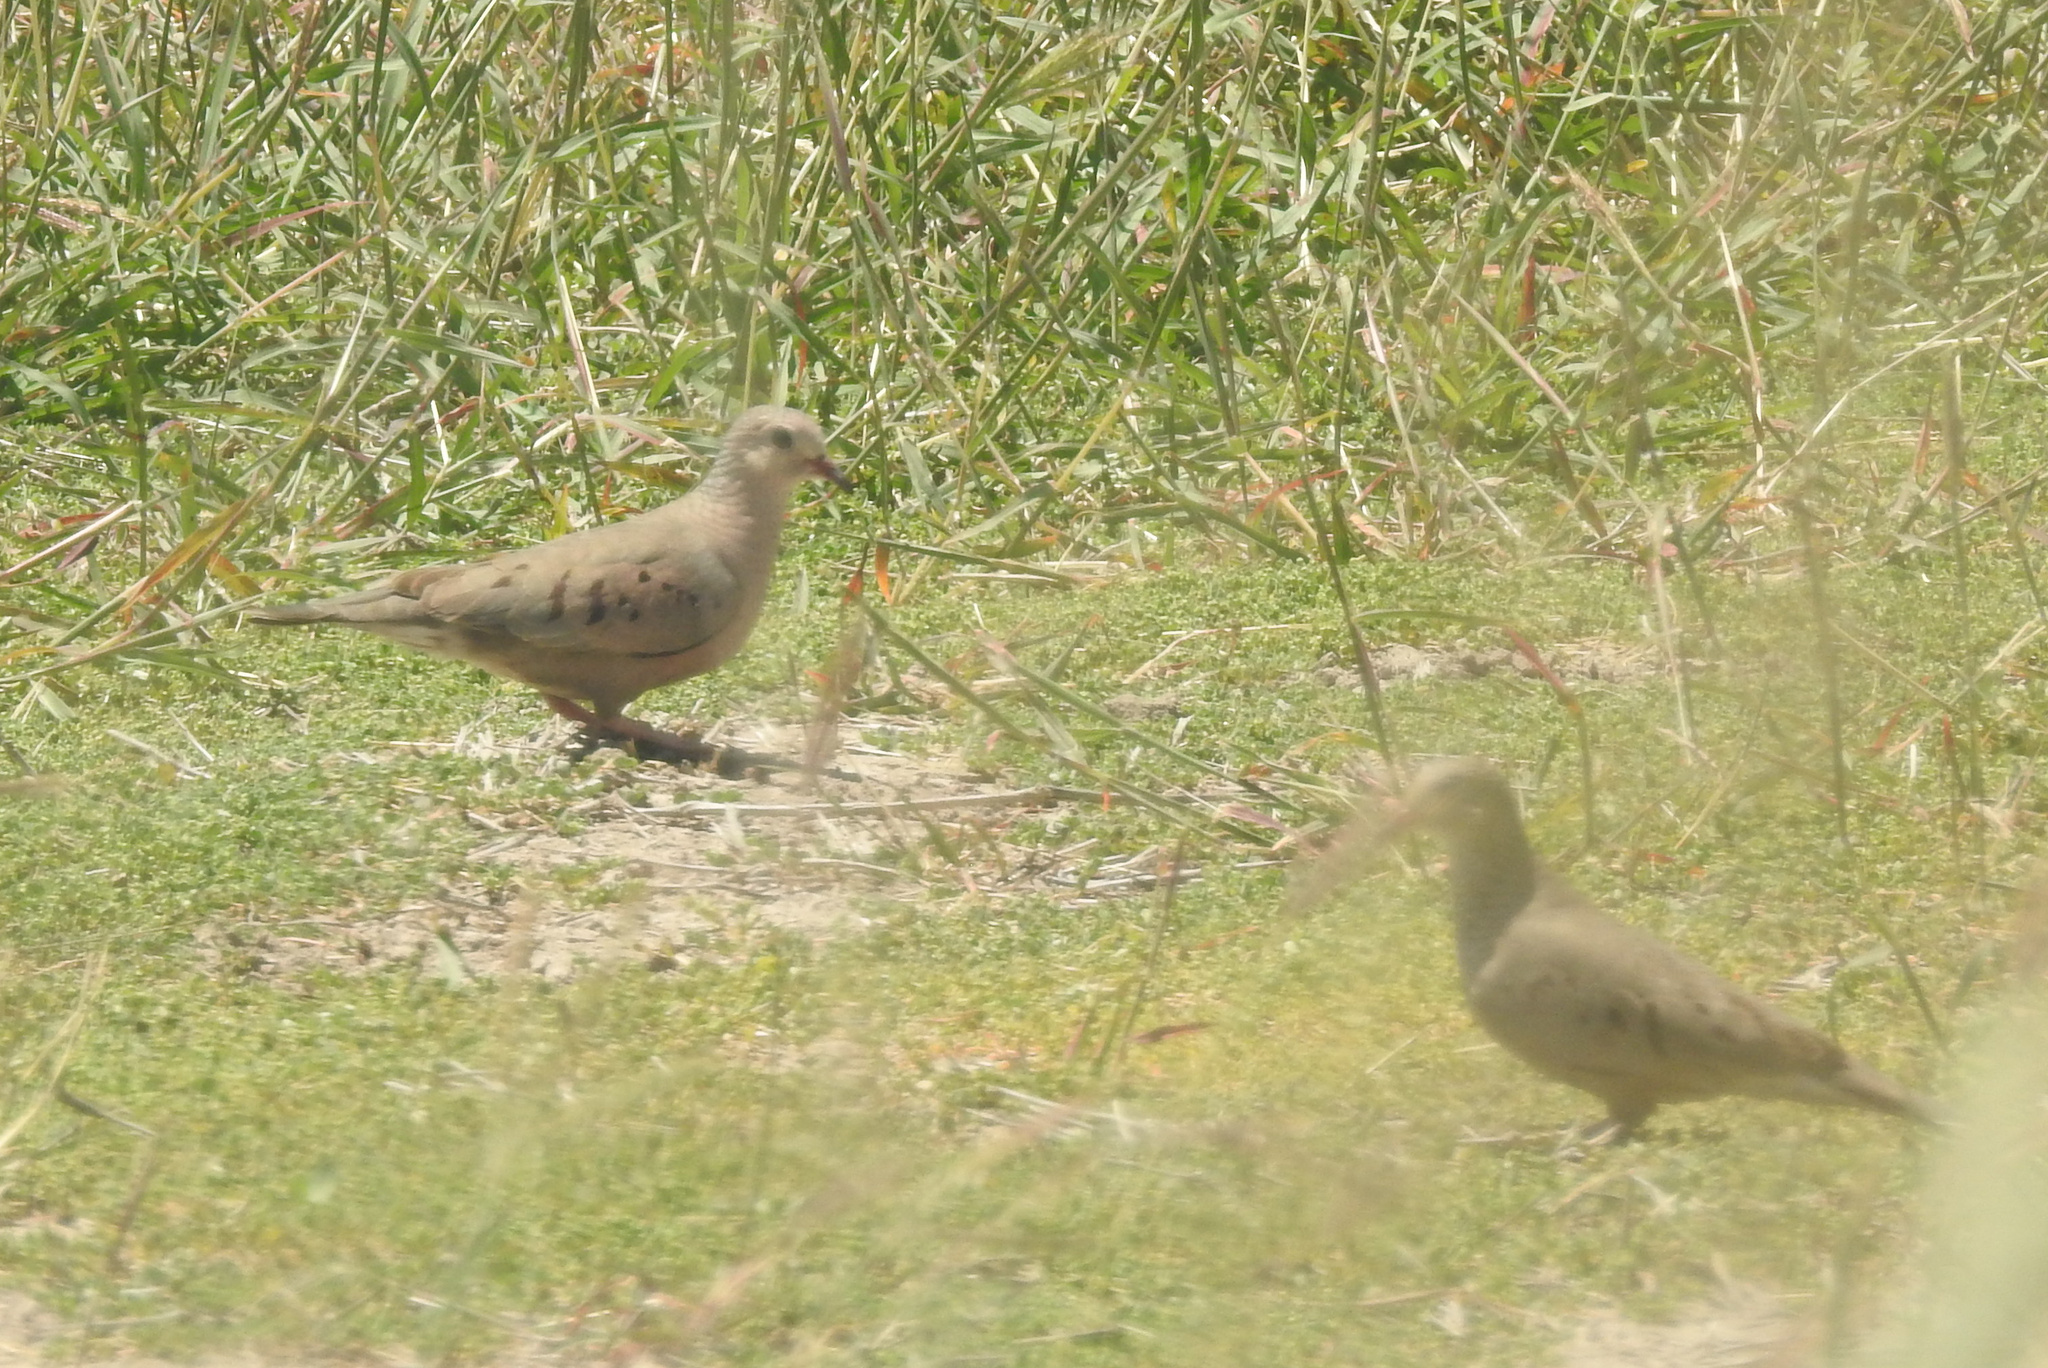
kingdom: Animalia
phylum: Chordata
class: Aves
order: Columbiformes
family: Columbidae
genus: Columbina
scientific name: Columbina passerina
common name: Common ground-dove
